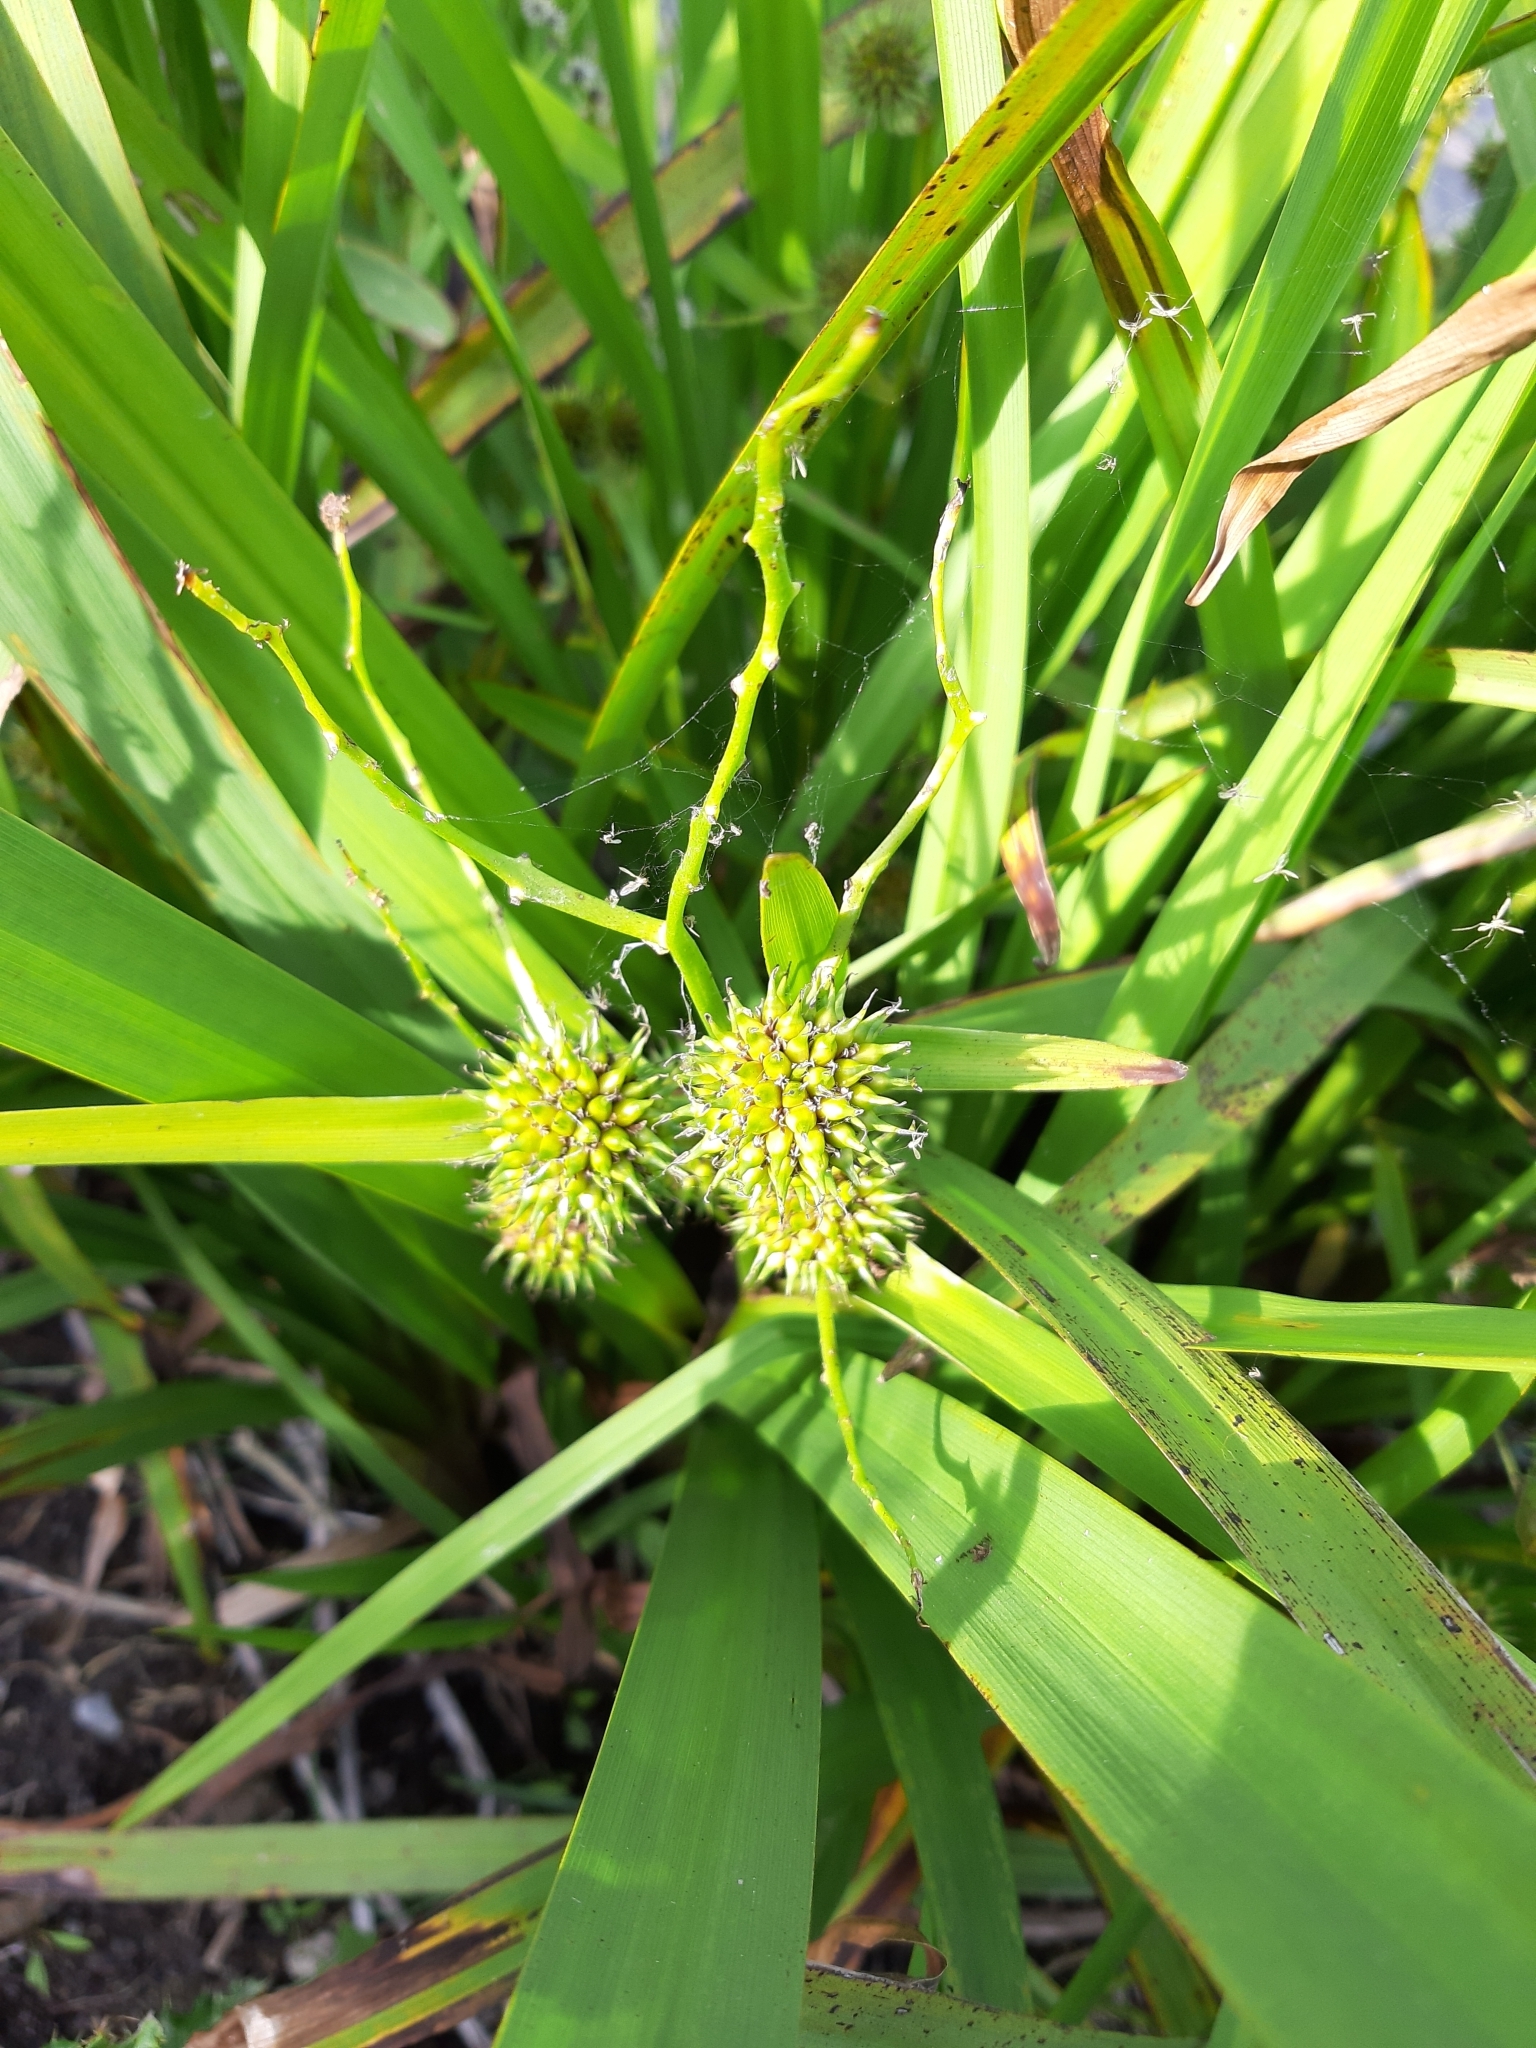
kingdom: Plantae
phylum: Tracheophyta
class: Liliopsida
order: Poales
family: Typhaceae
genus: Sparganium
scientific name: Sparganium erectum
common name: Branched bur-reed
